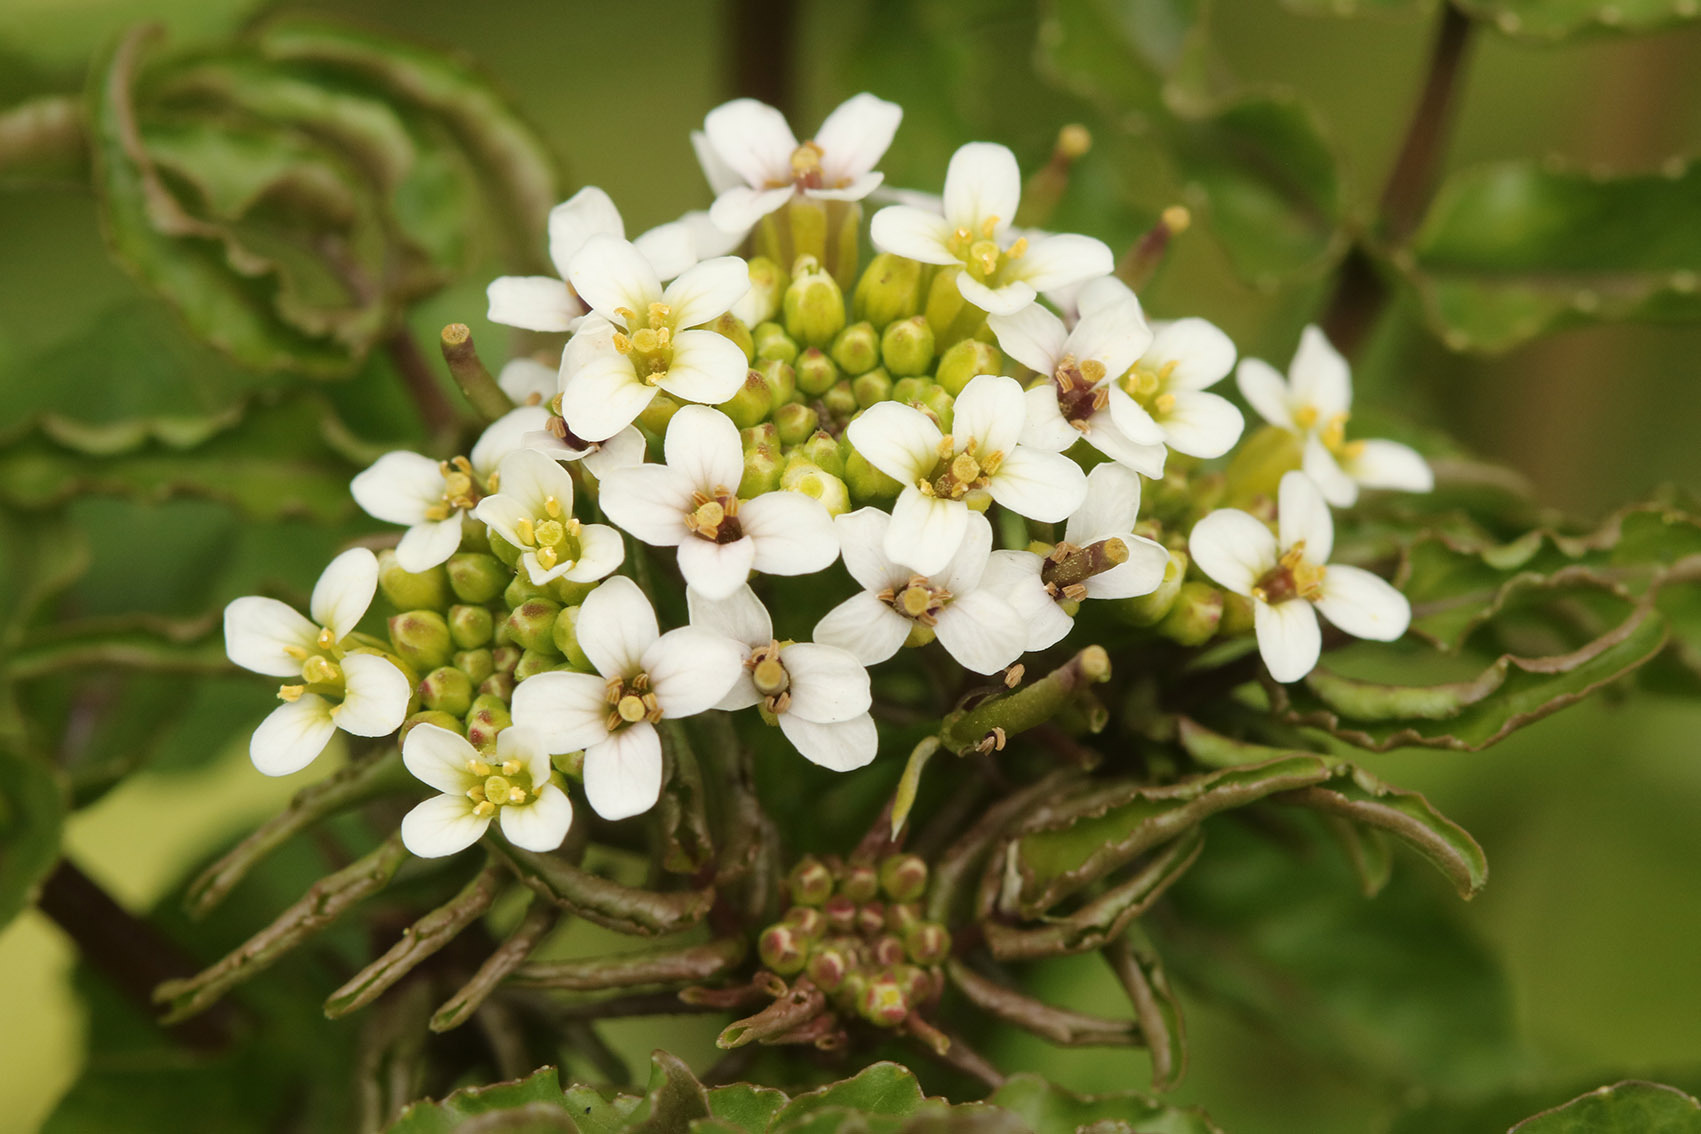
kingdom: Plantae
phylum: Tracheophyta
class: Magnoliopsida
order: Brassicales
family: Brassicaceae
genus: Nasturtium
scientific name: Nasturtium officinale
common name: Watercress
